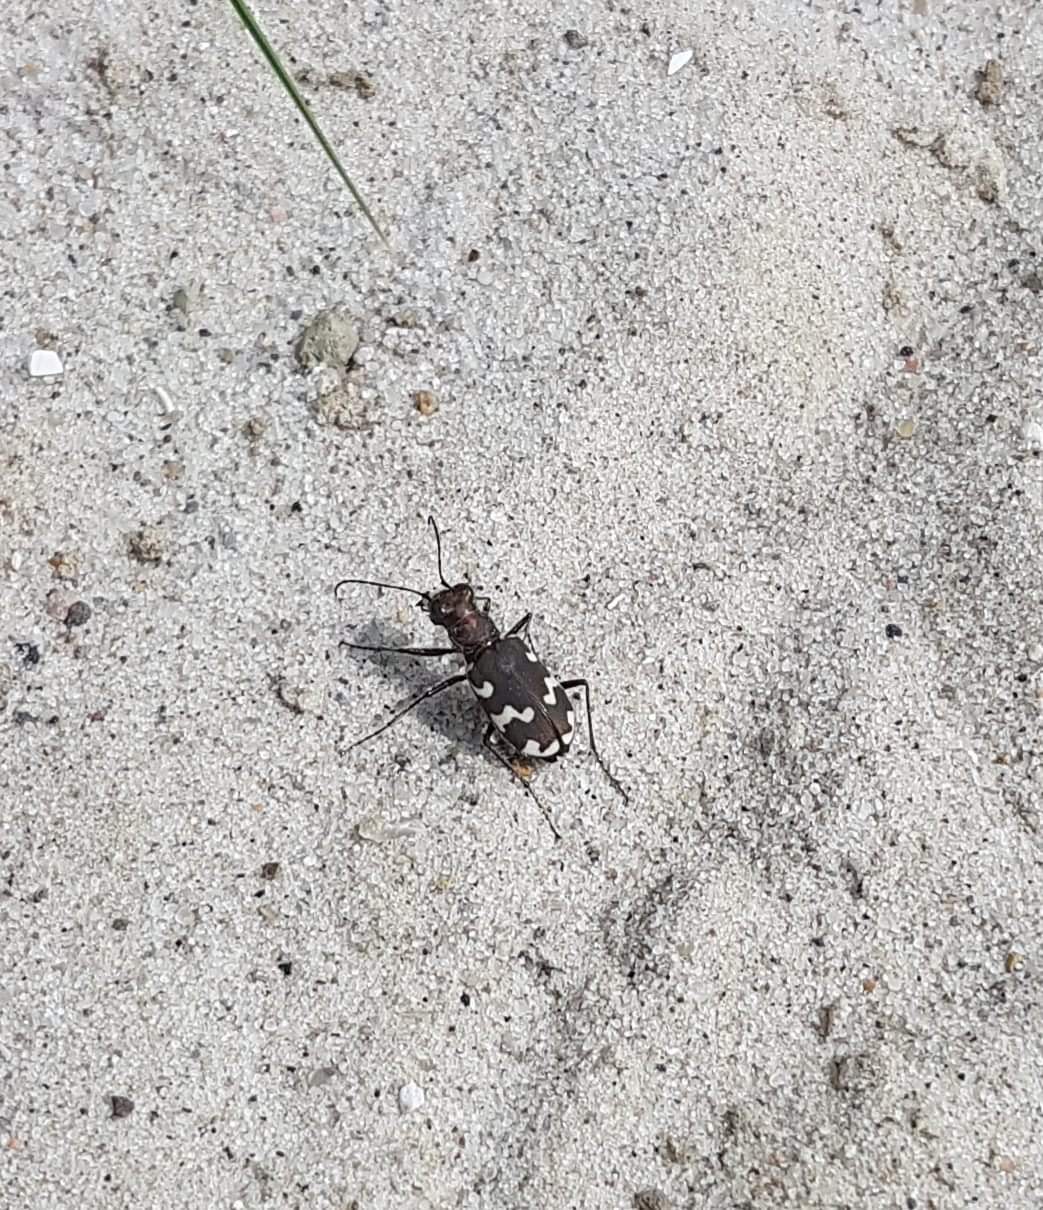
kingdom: Animalia
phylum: Arthropoda
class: Insecta
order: Coleoptera
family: Carabidae
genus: Cicindela
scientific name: Cicindela hybrida
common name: Northern dune tiger beetle
